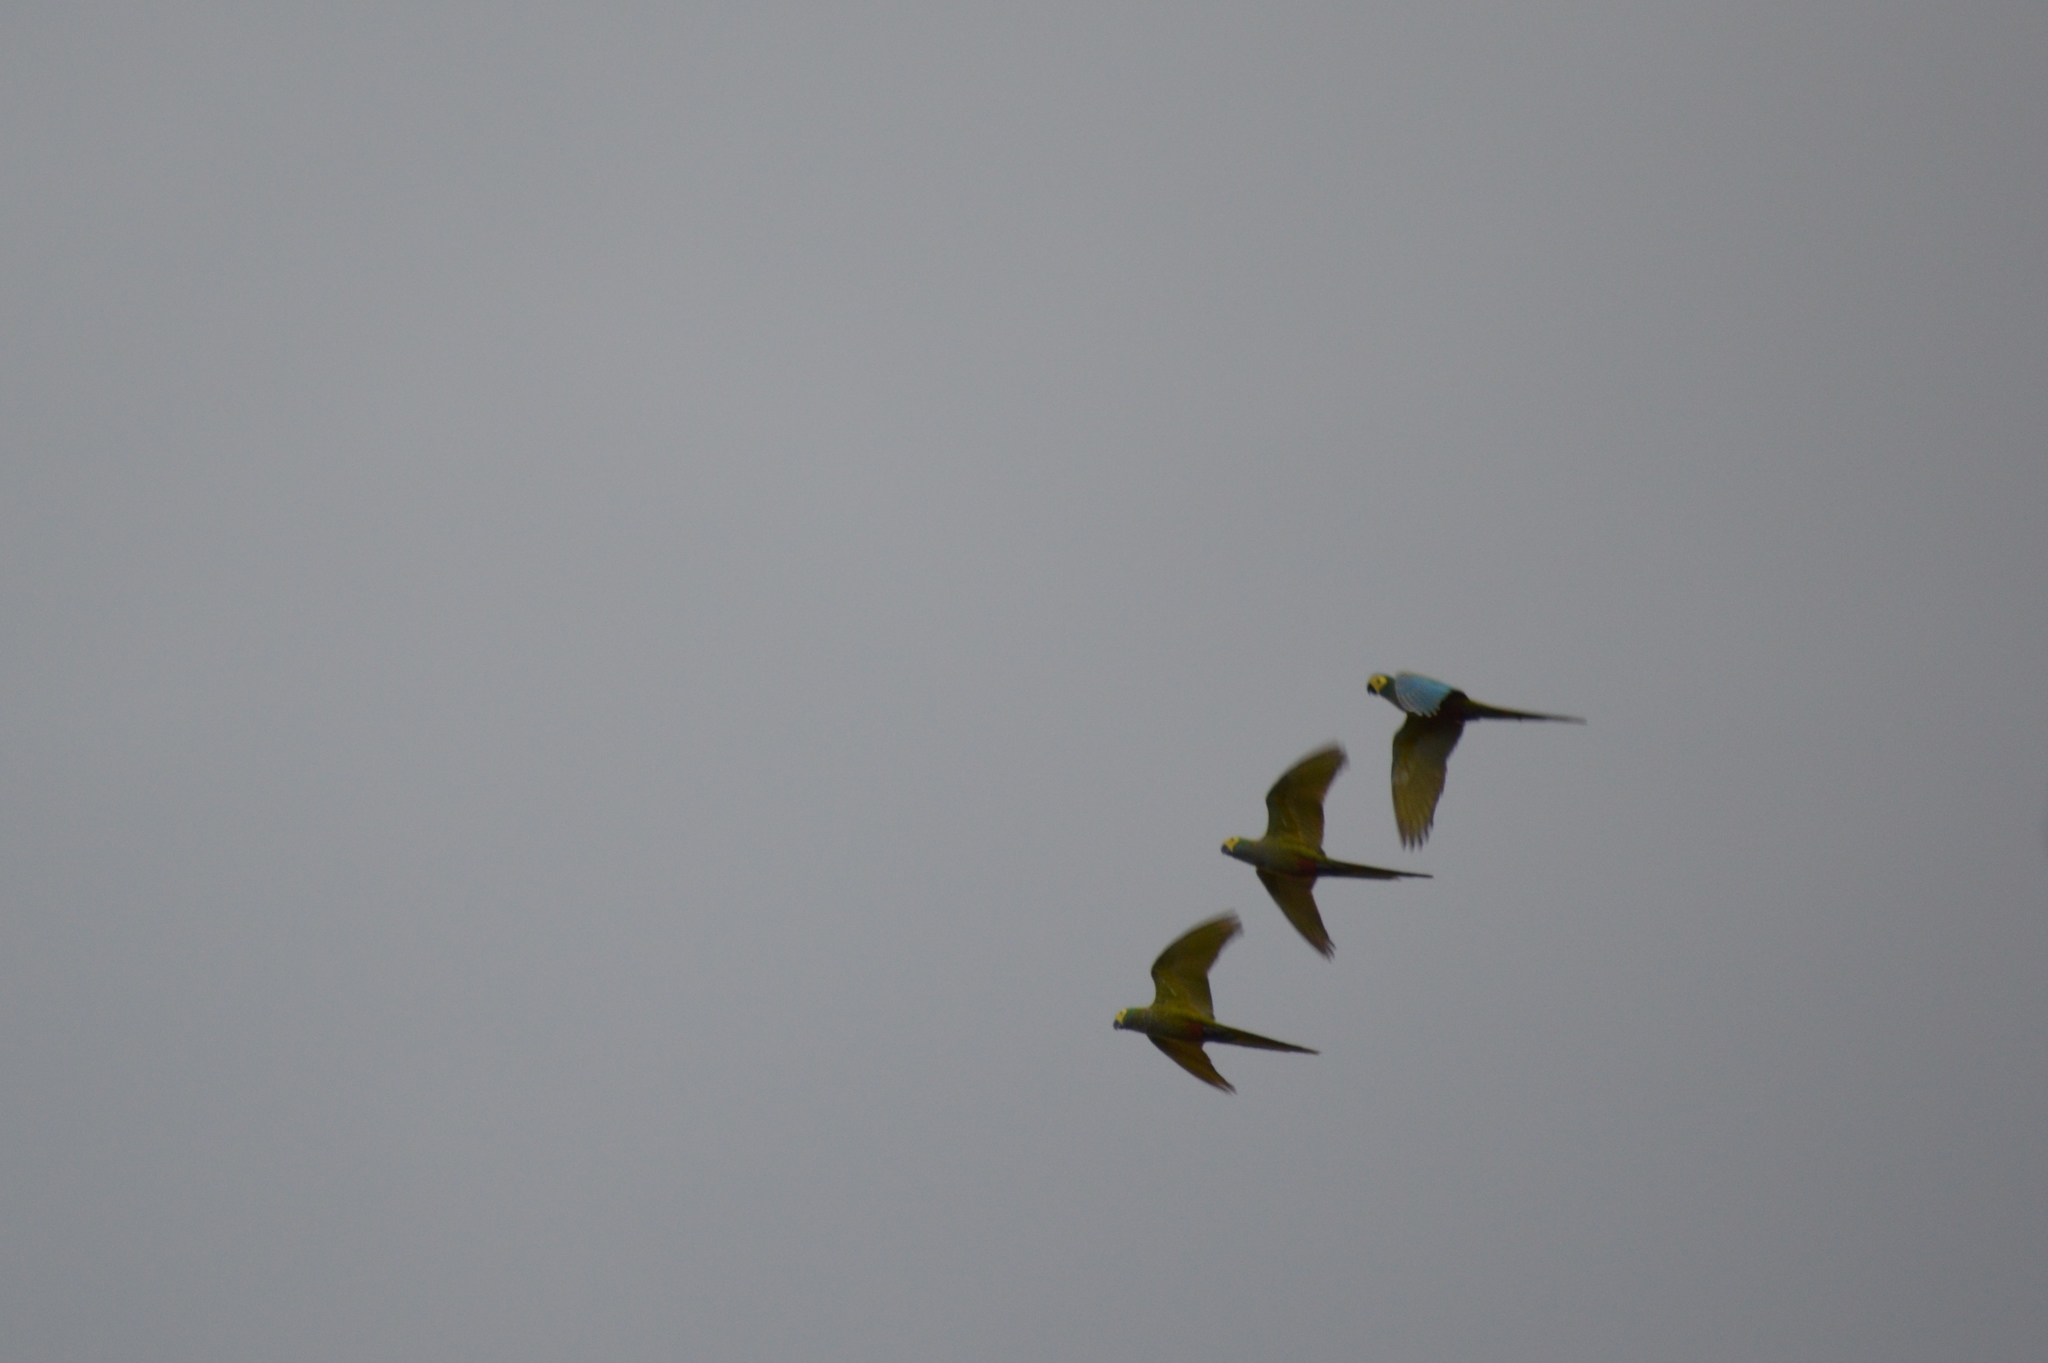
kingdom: Animalia
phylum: Chordata
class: Aves
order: Psittaciformes
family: Psittacidae
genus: Orthopsittaca
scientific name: Orthopsittaca manilata
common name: Red-bellied macaw
